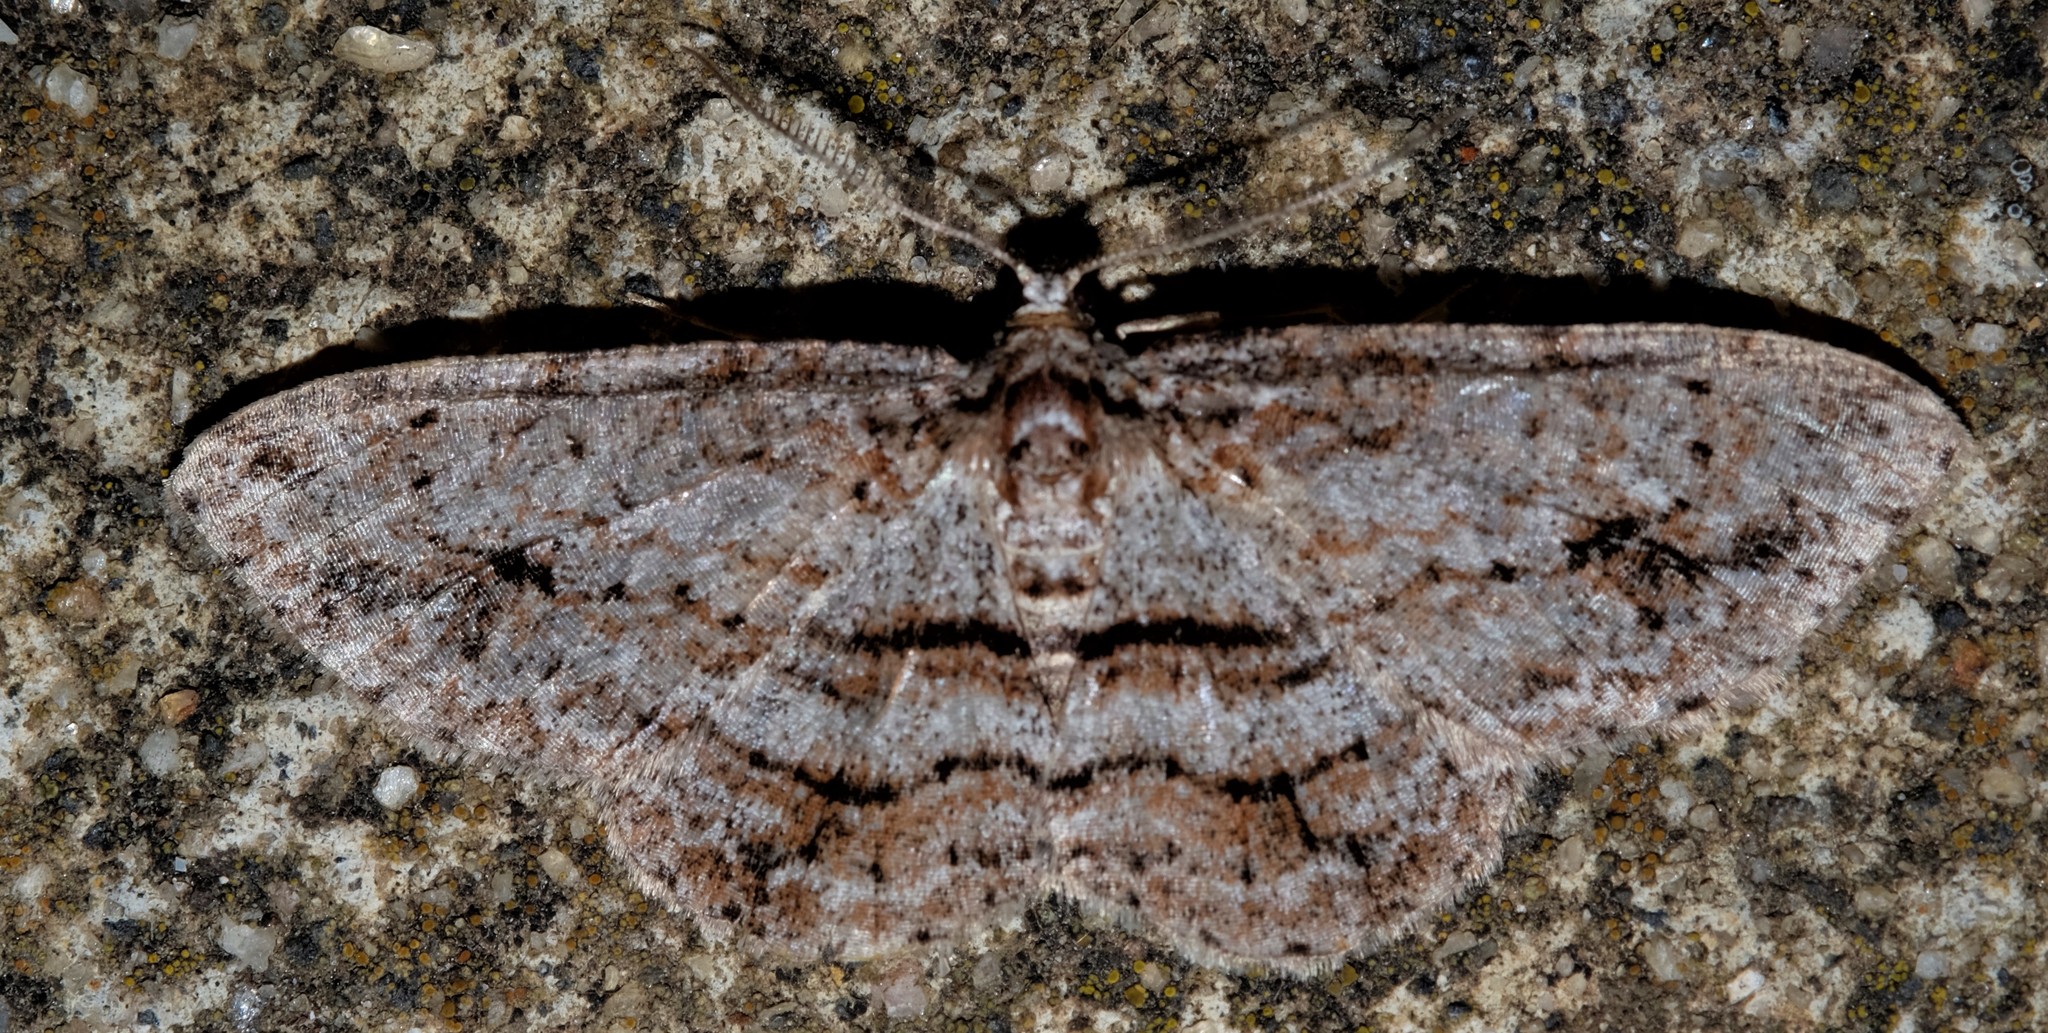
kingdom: Animalia
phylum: Arthropoda
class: Insecta
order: Lepidoptera
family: Geometridae
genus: Didymoctenia
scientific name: Didymoctenia exsuperata
